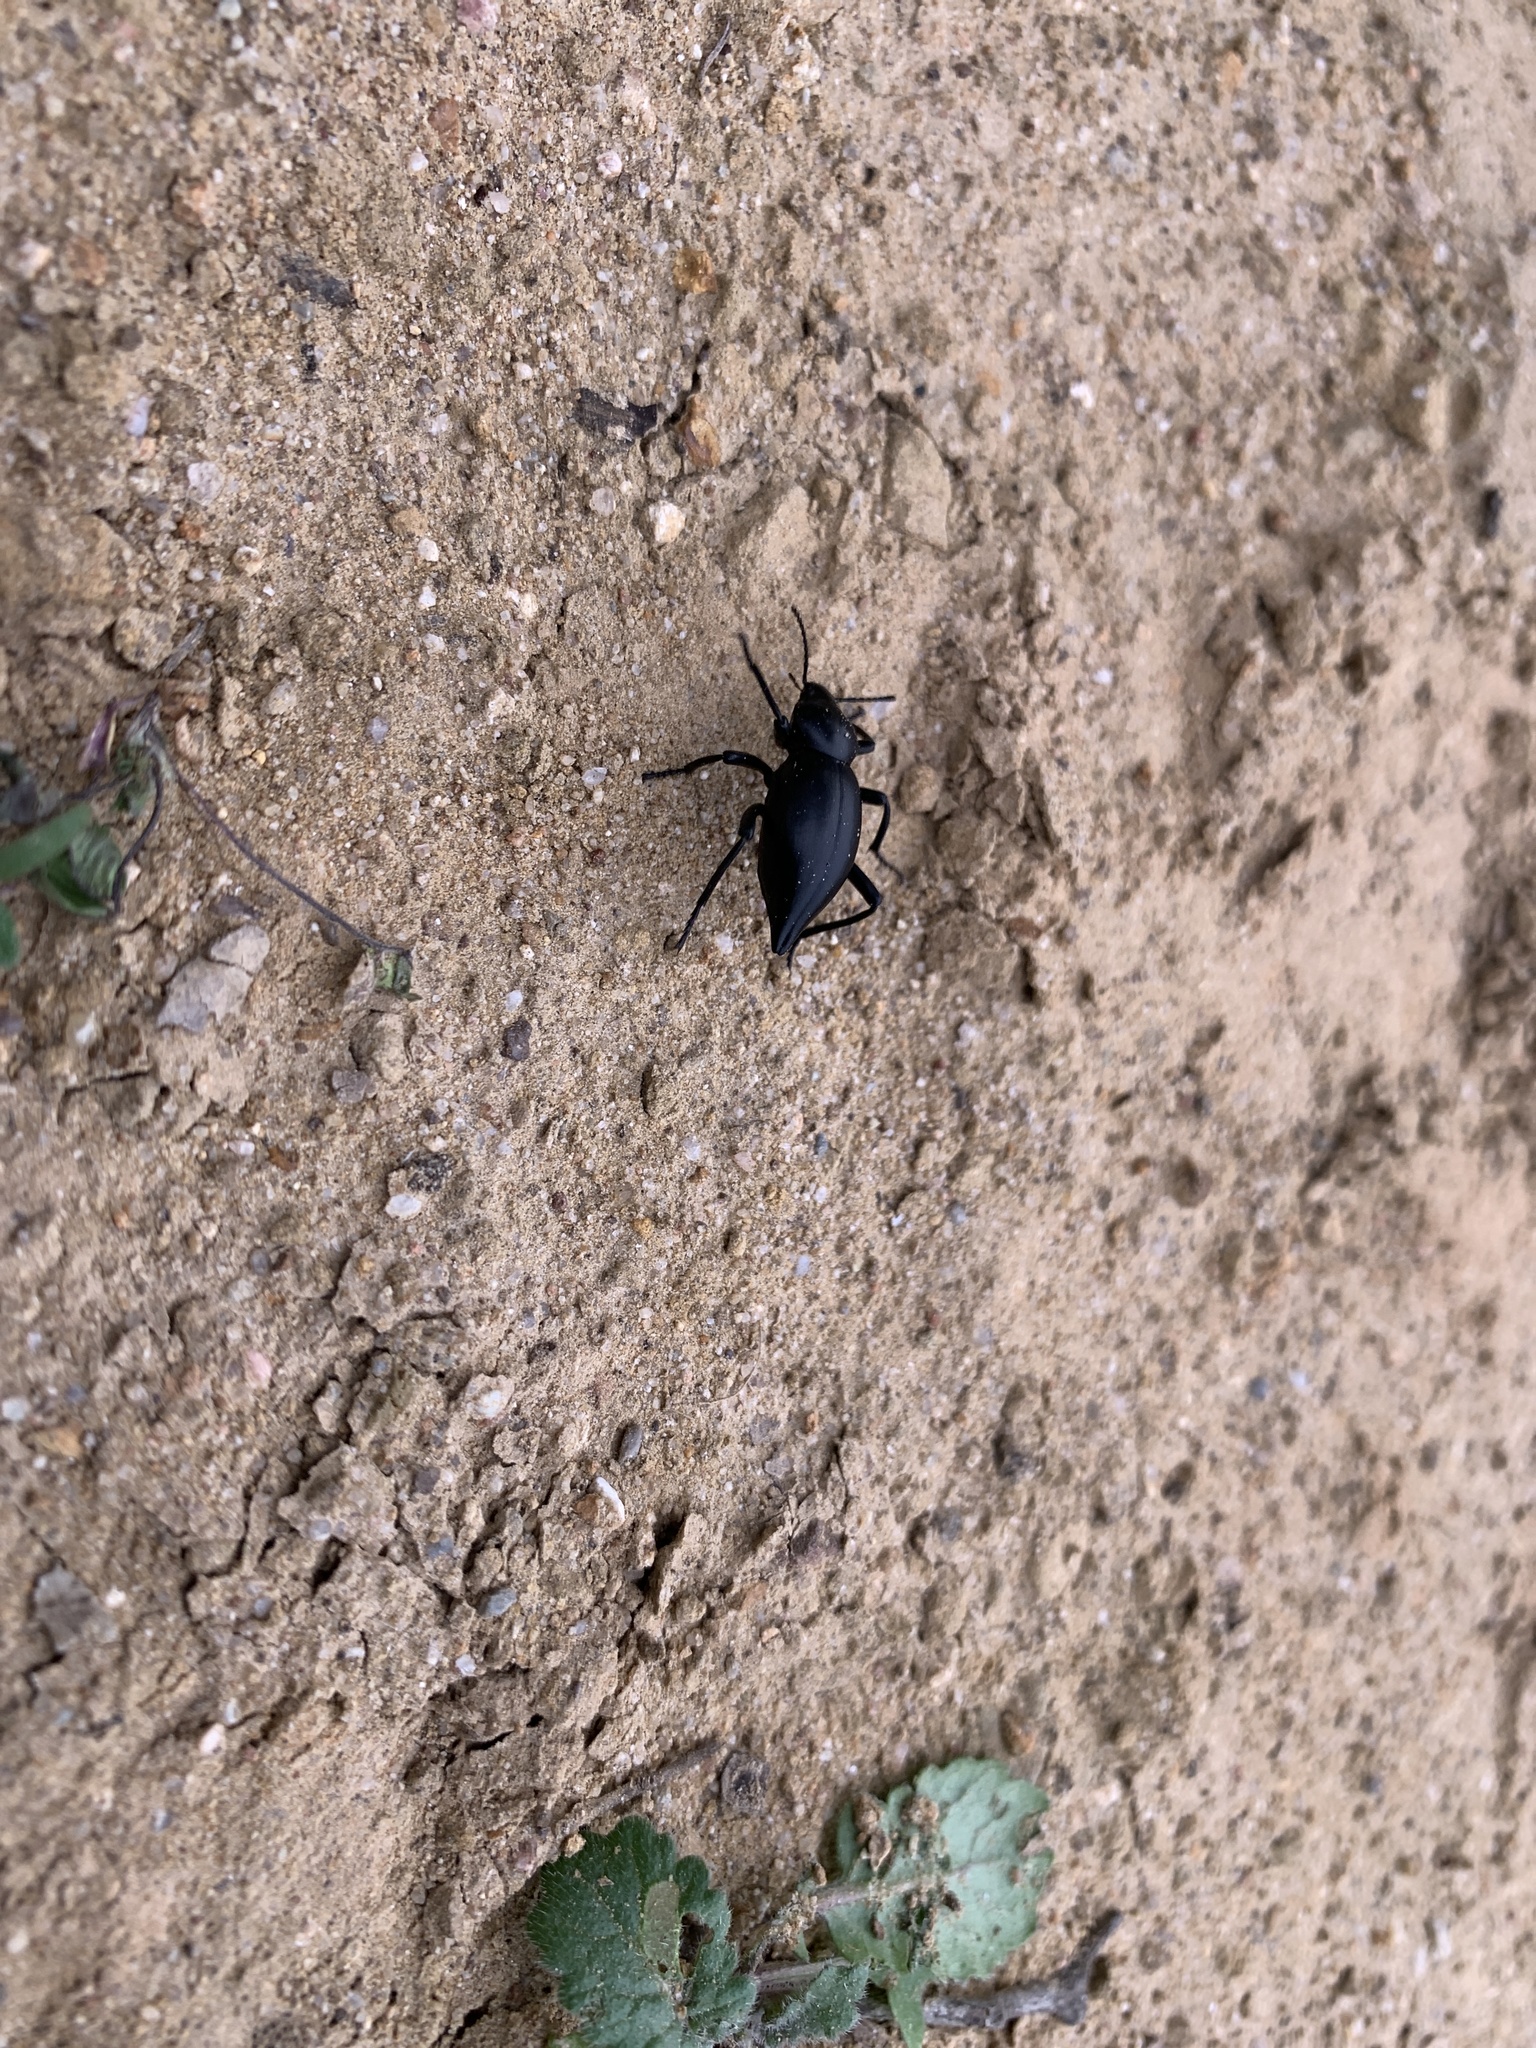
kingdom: Animalia
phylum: Arthropoda
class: Insecta
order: Coleoptera
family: Tenebrionidae
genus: Eleodes
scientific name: Eleodes acuticauda
